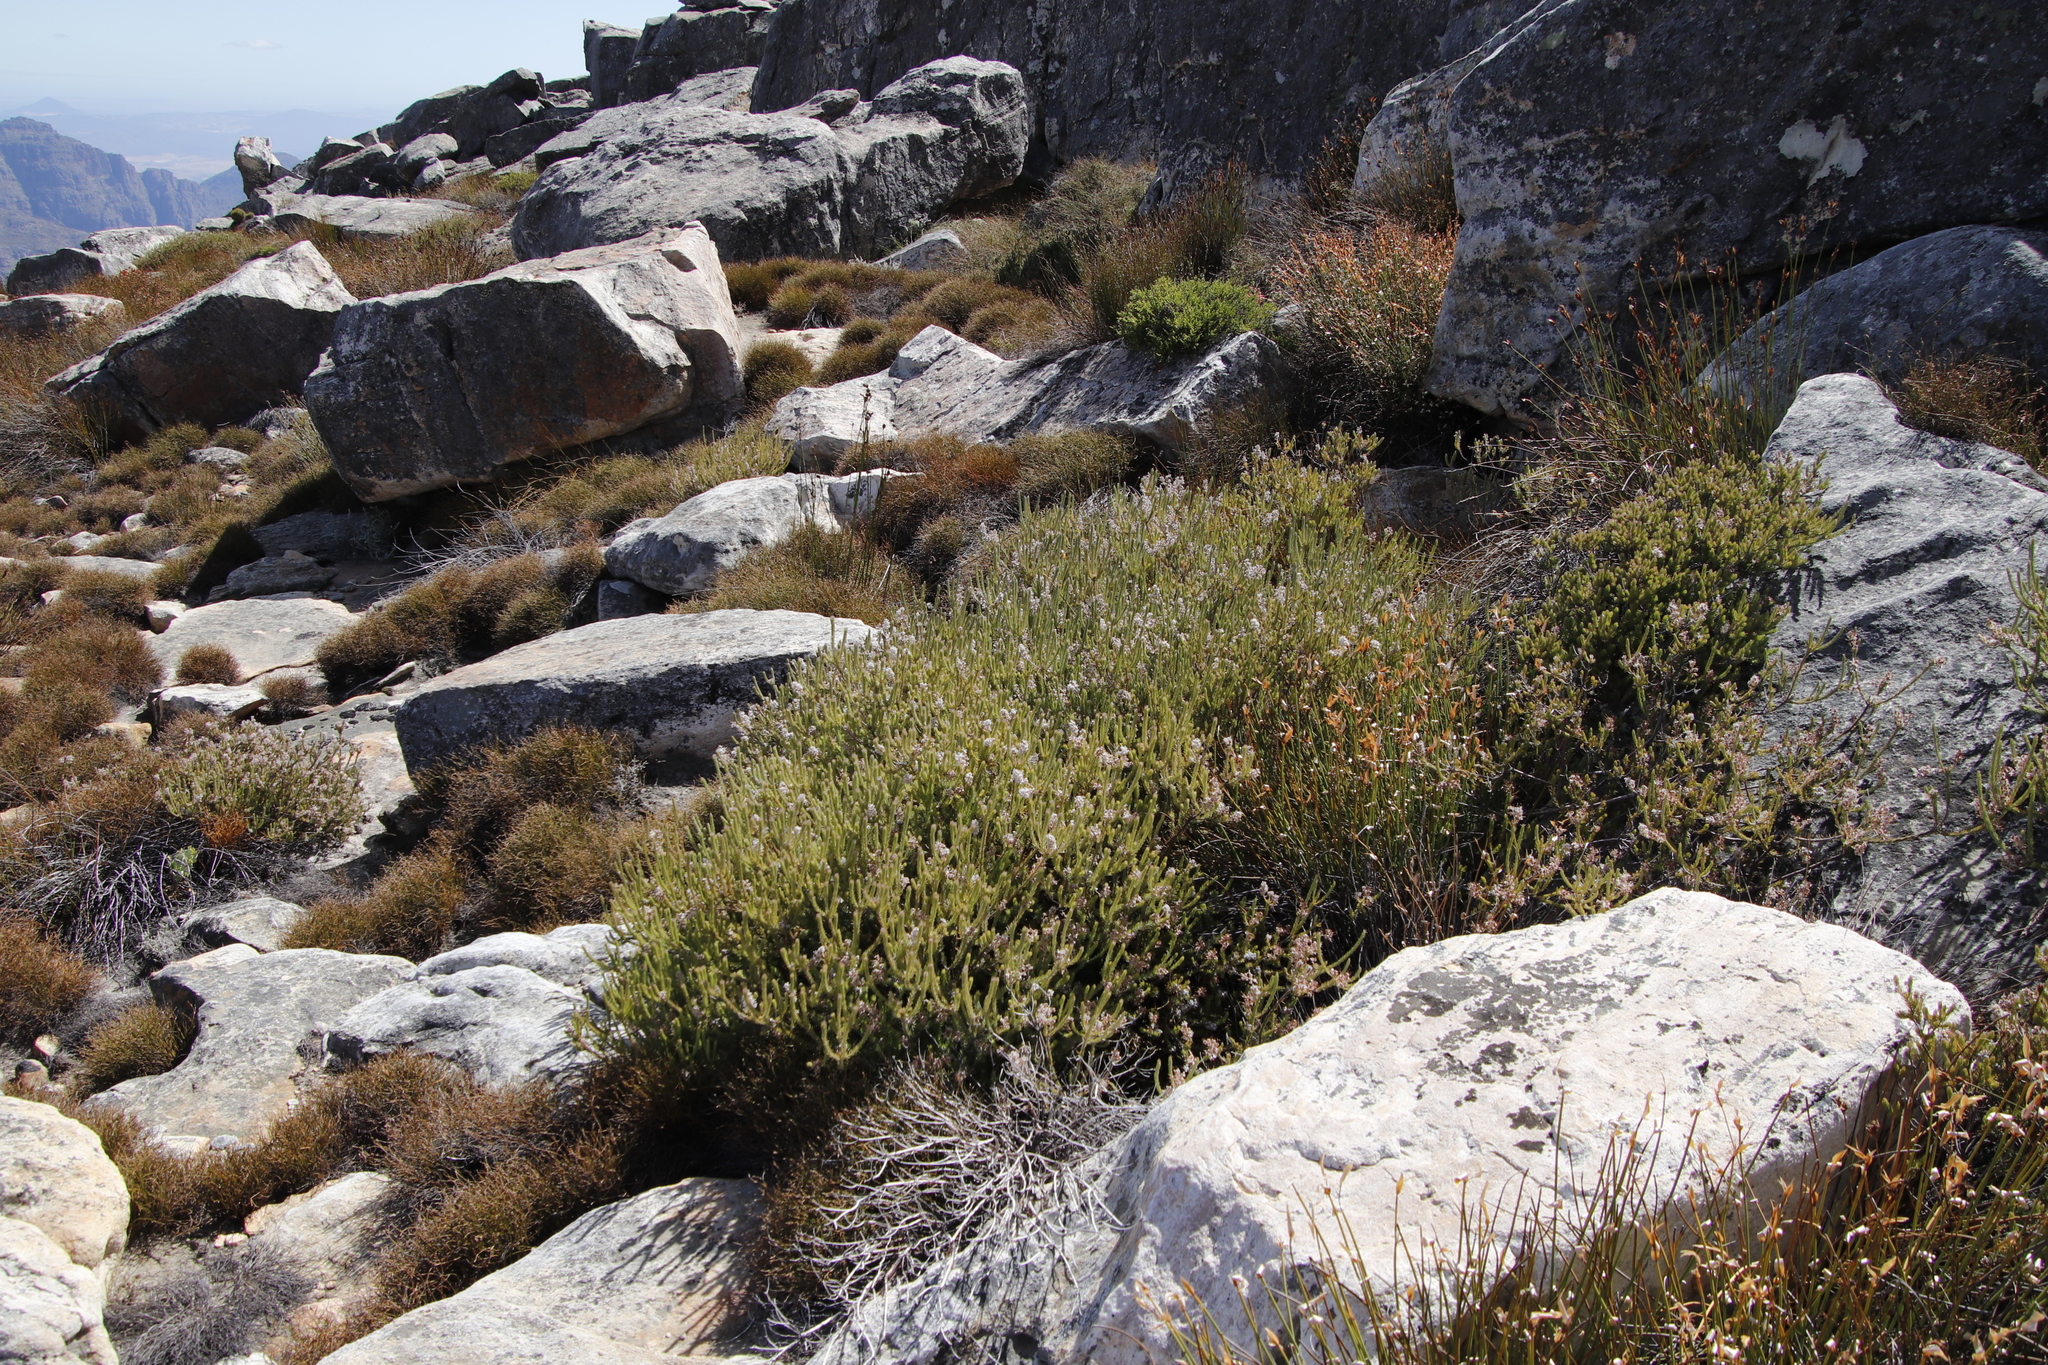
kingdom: Plantae
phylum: Tracheophyta
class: Magnoliopsida
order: Proteales
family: Proteaceae
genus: Spatalla
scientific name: Spatalla incurva
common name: Swan-head spoon
